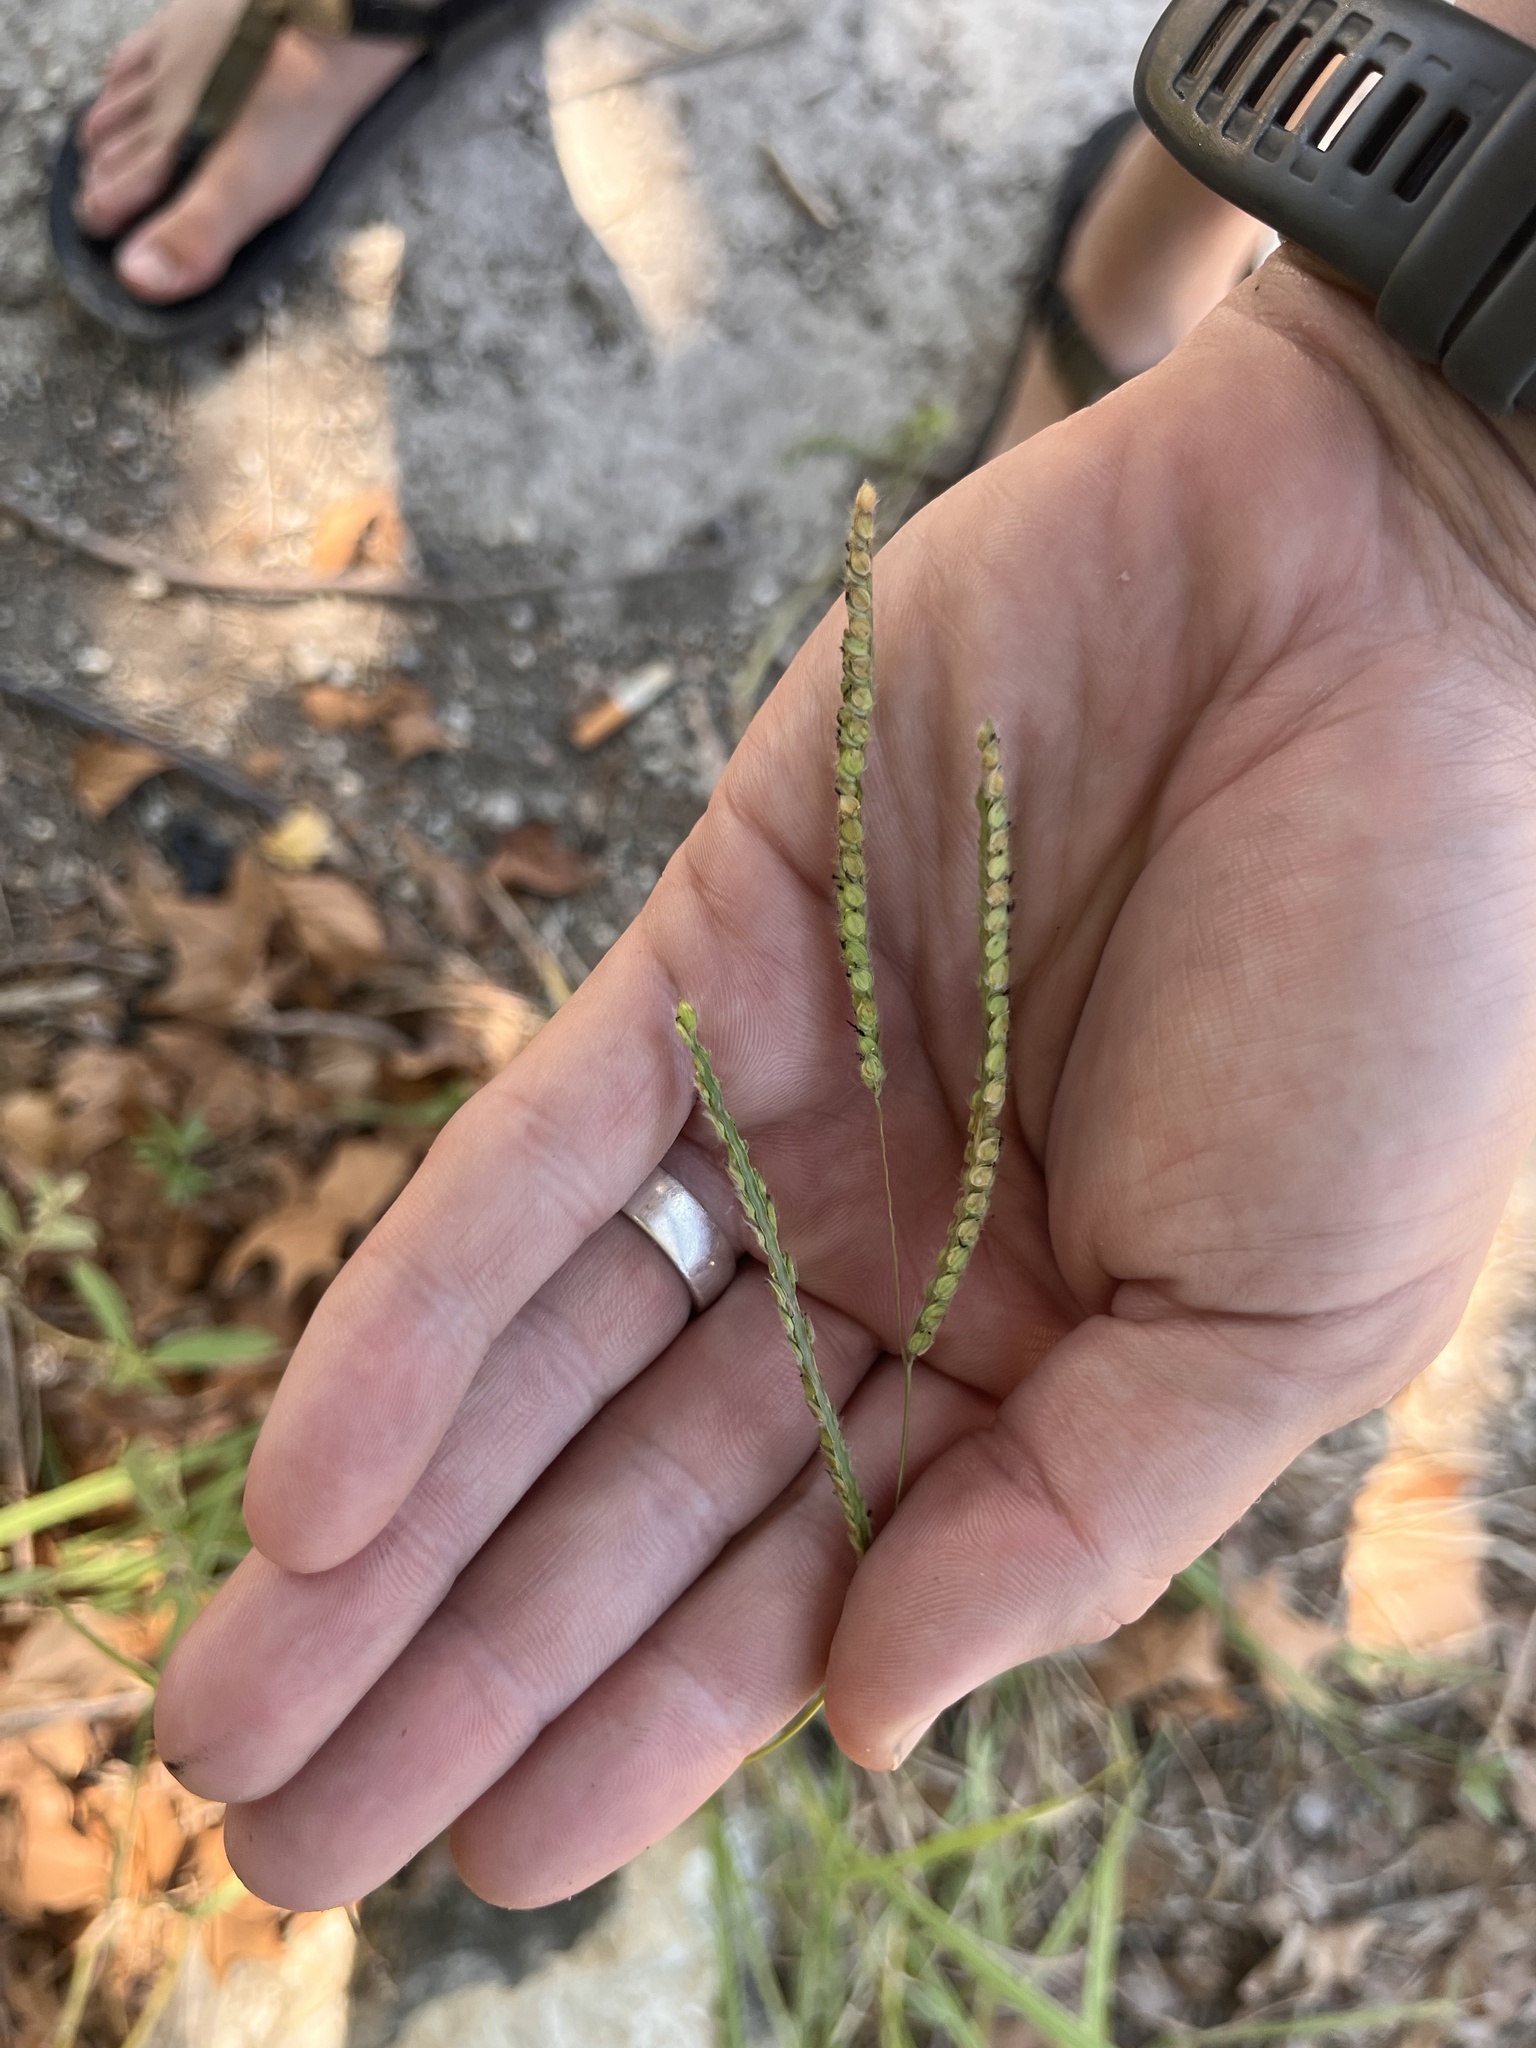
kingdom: Plantae
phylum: Tracheophyta
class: Liliopsida
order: Poales
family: Poaceae
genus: Paspalum
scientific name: Paspalum dilatatum
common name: Dallisgrass
